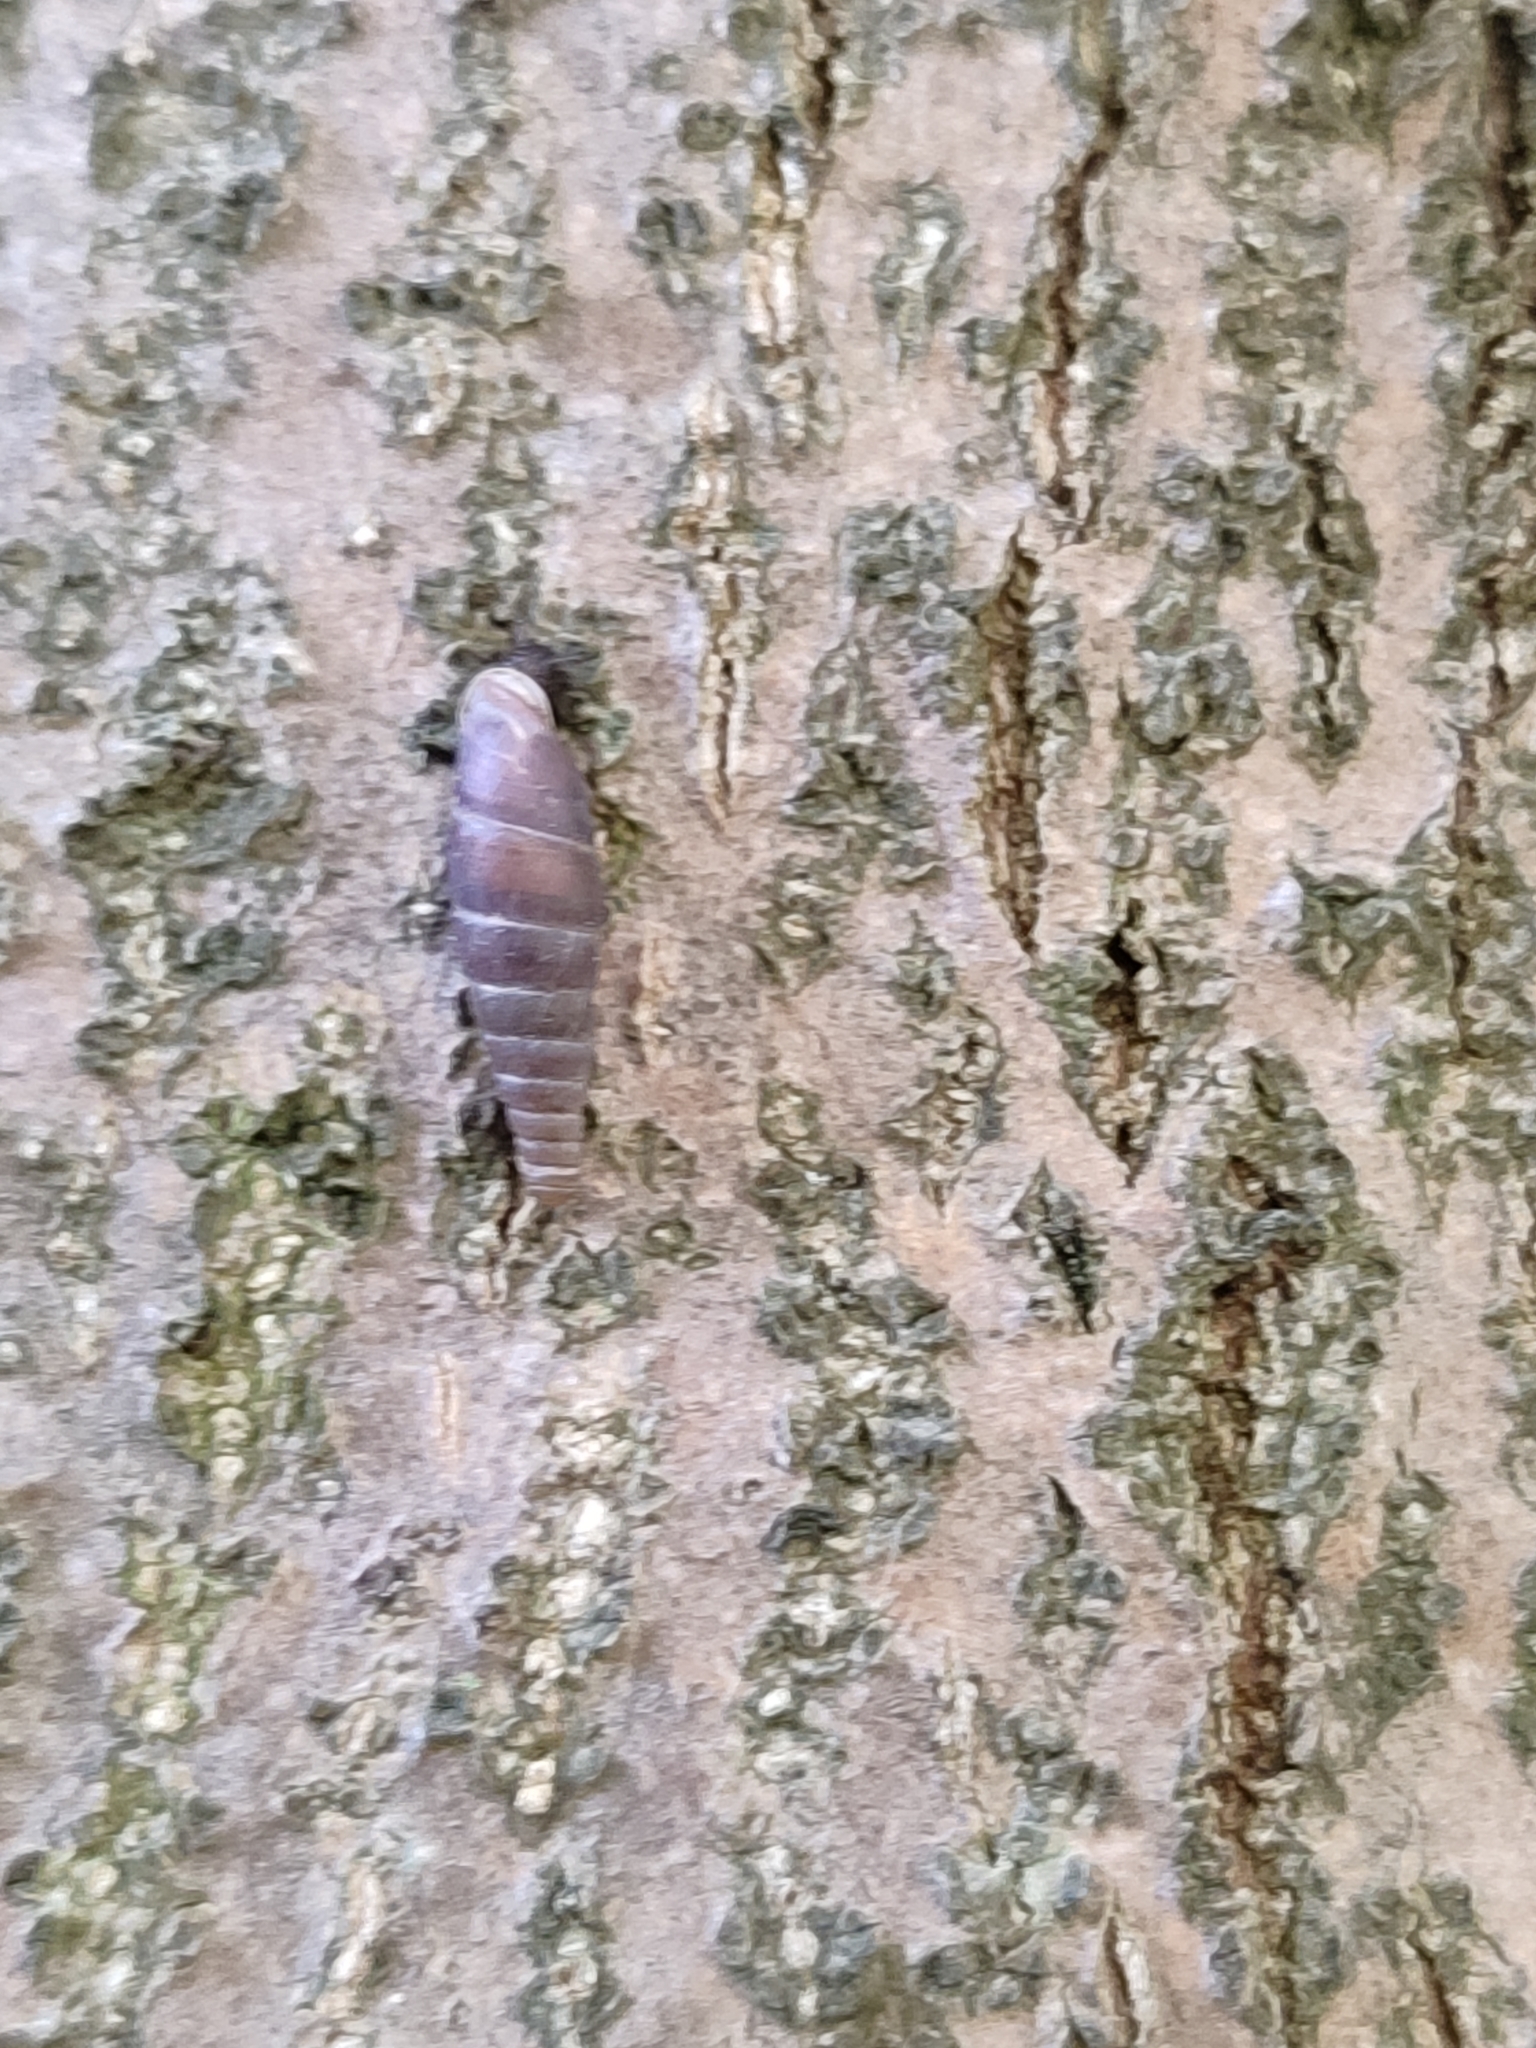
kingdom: Animalia
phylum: Mollusca
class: Gastropoda
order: Stylommatophora
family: Clausiliidae
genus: Elia
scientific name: Elia ossetica
